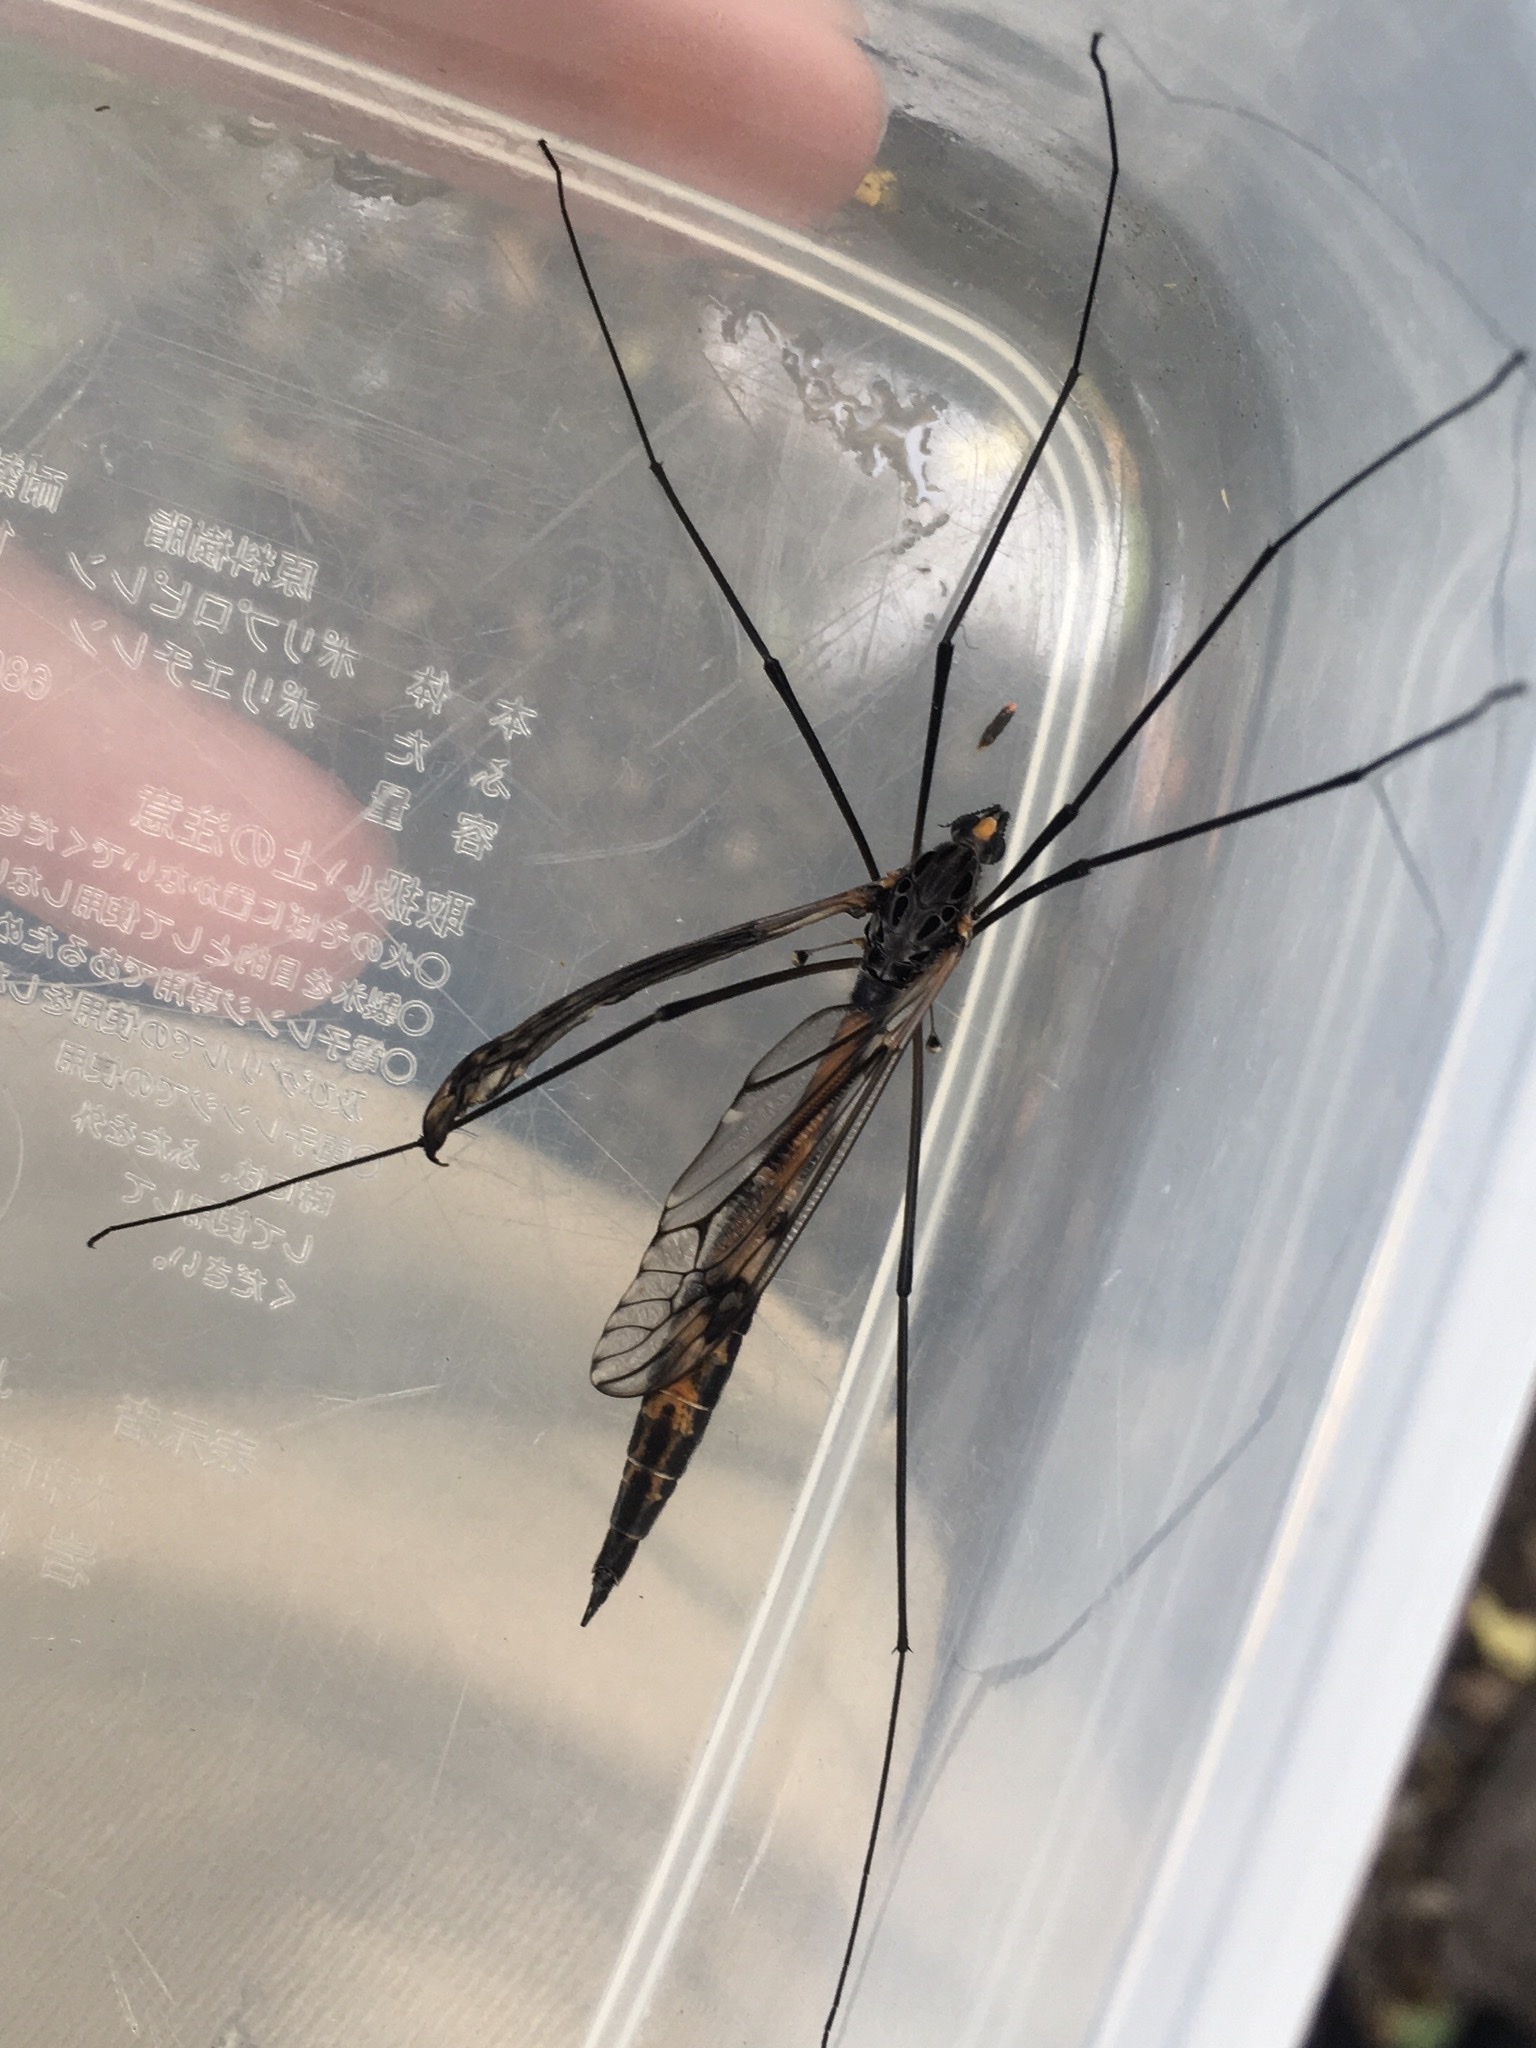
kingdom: Animalia
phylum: Arthropoda
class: Insecta
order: Diptera
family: Tipulidae
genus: Tipula
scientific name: Tipula metacomet
